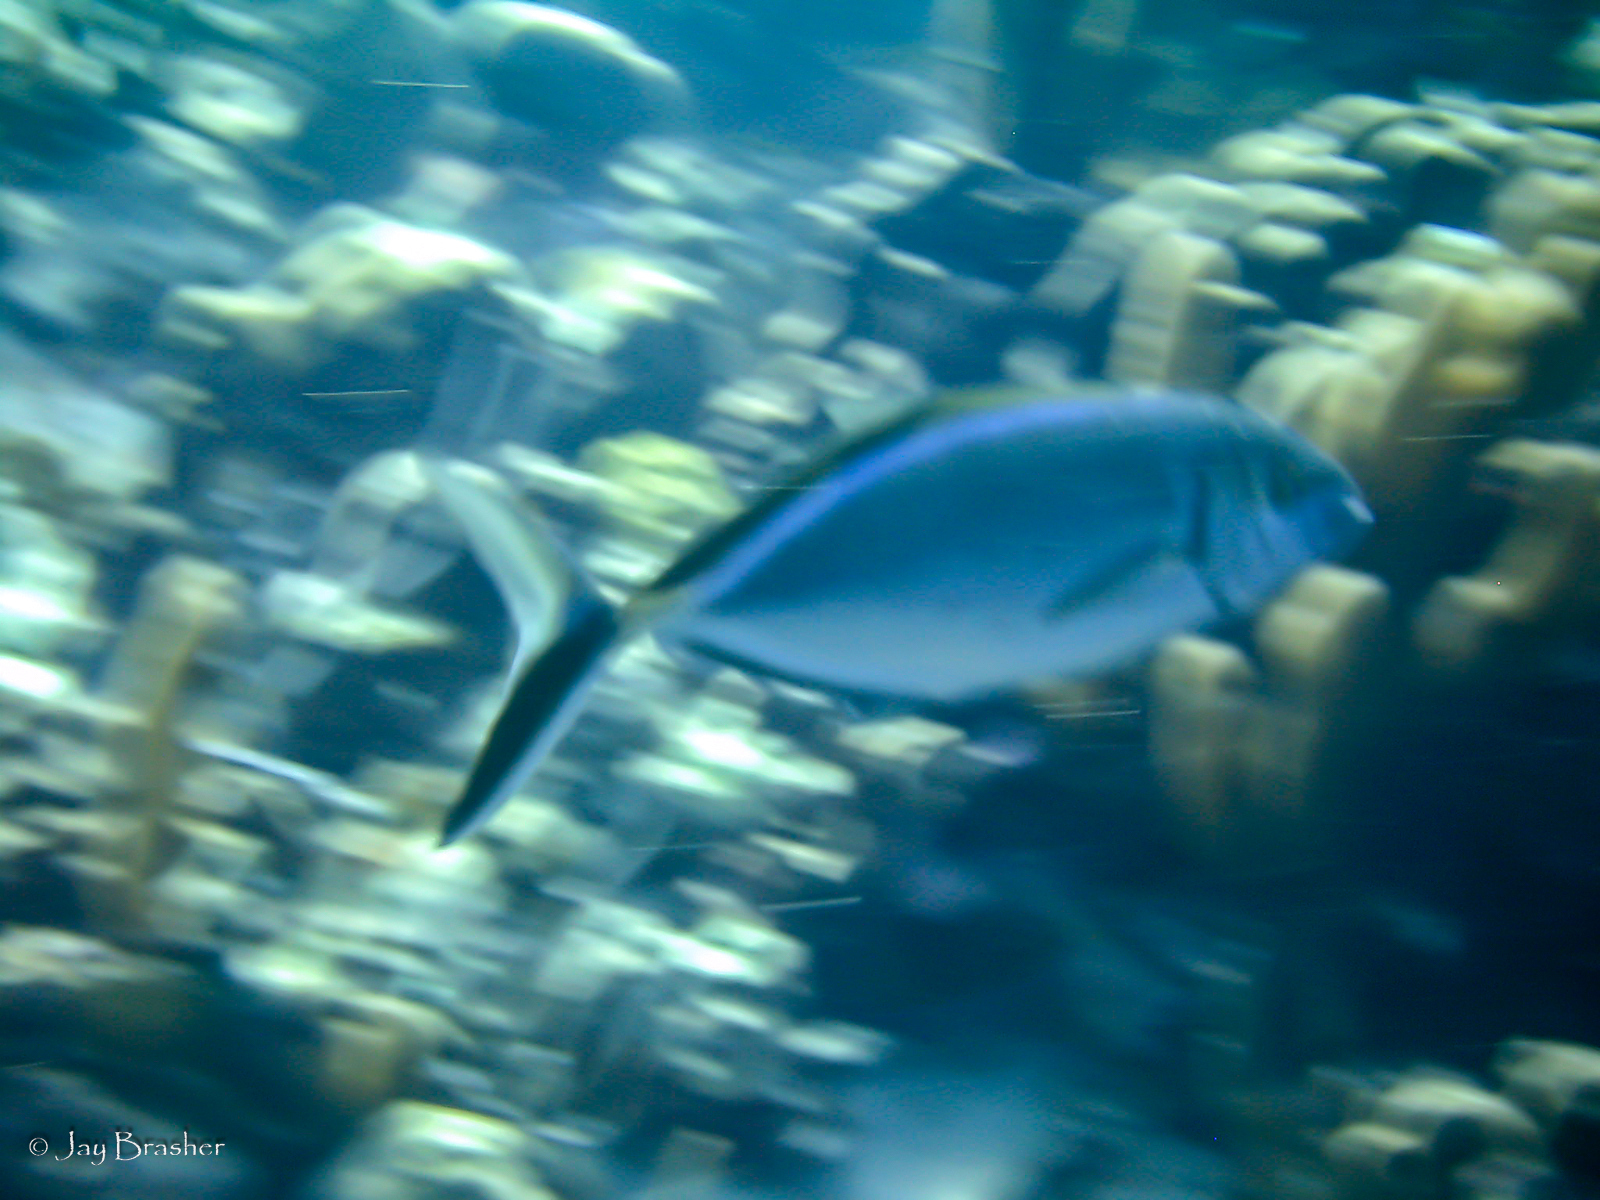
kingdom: Animalia
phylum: Chordata
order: Perciformes
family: Carangidae
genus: Caranx
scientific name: Caranx ruber
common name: Bar jack
